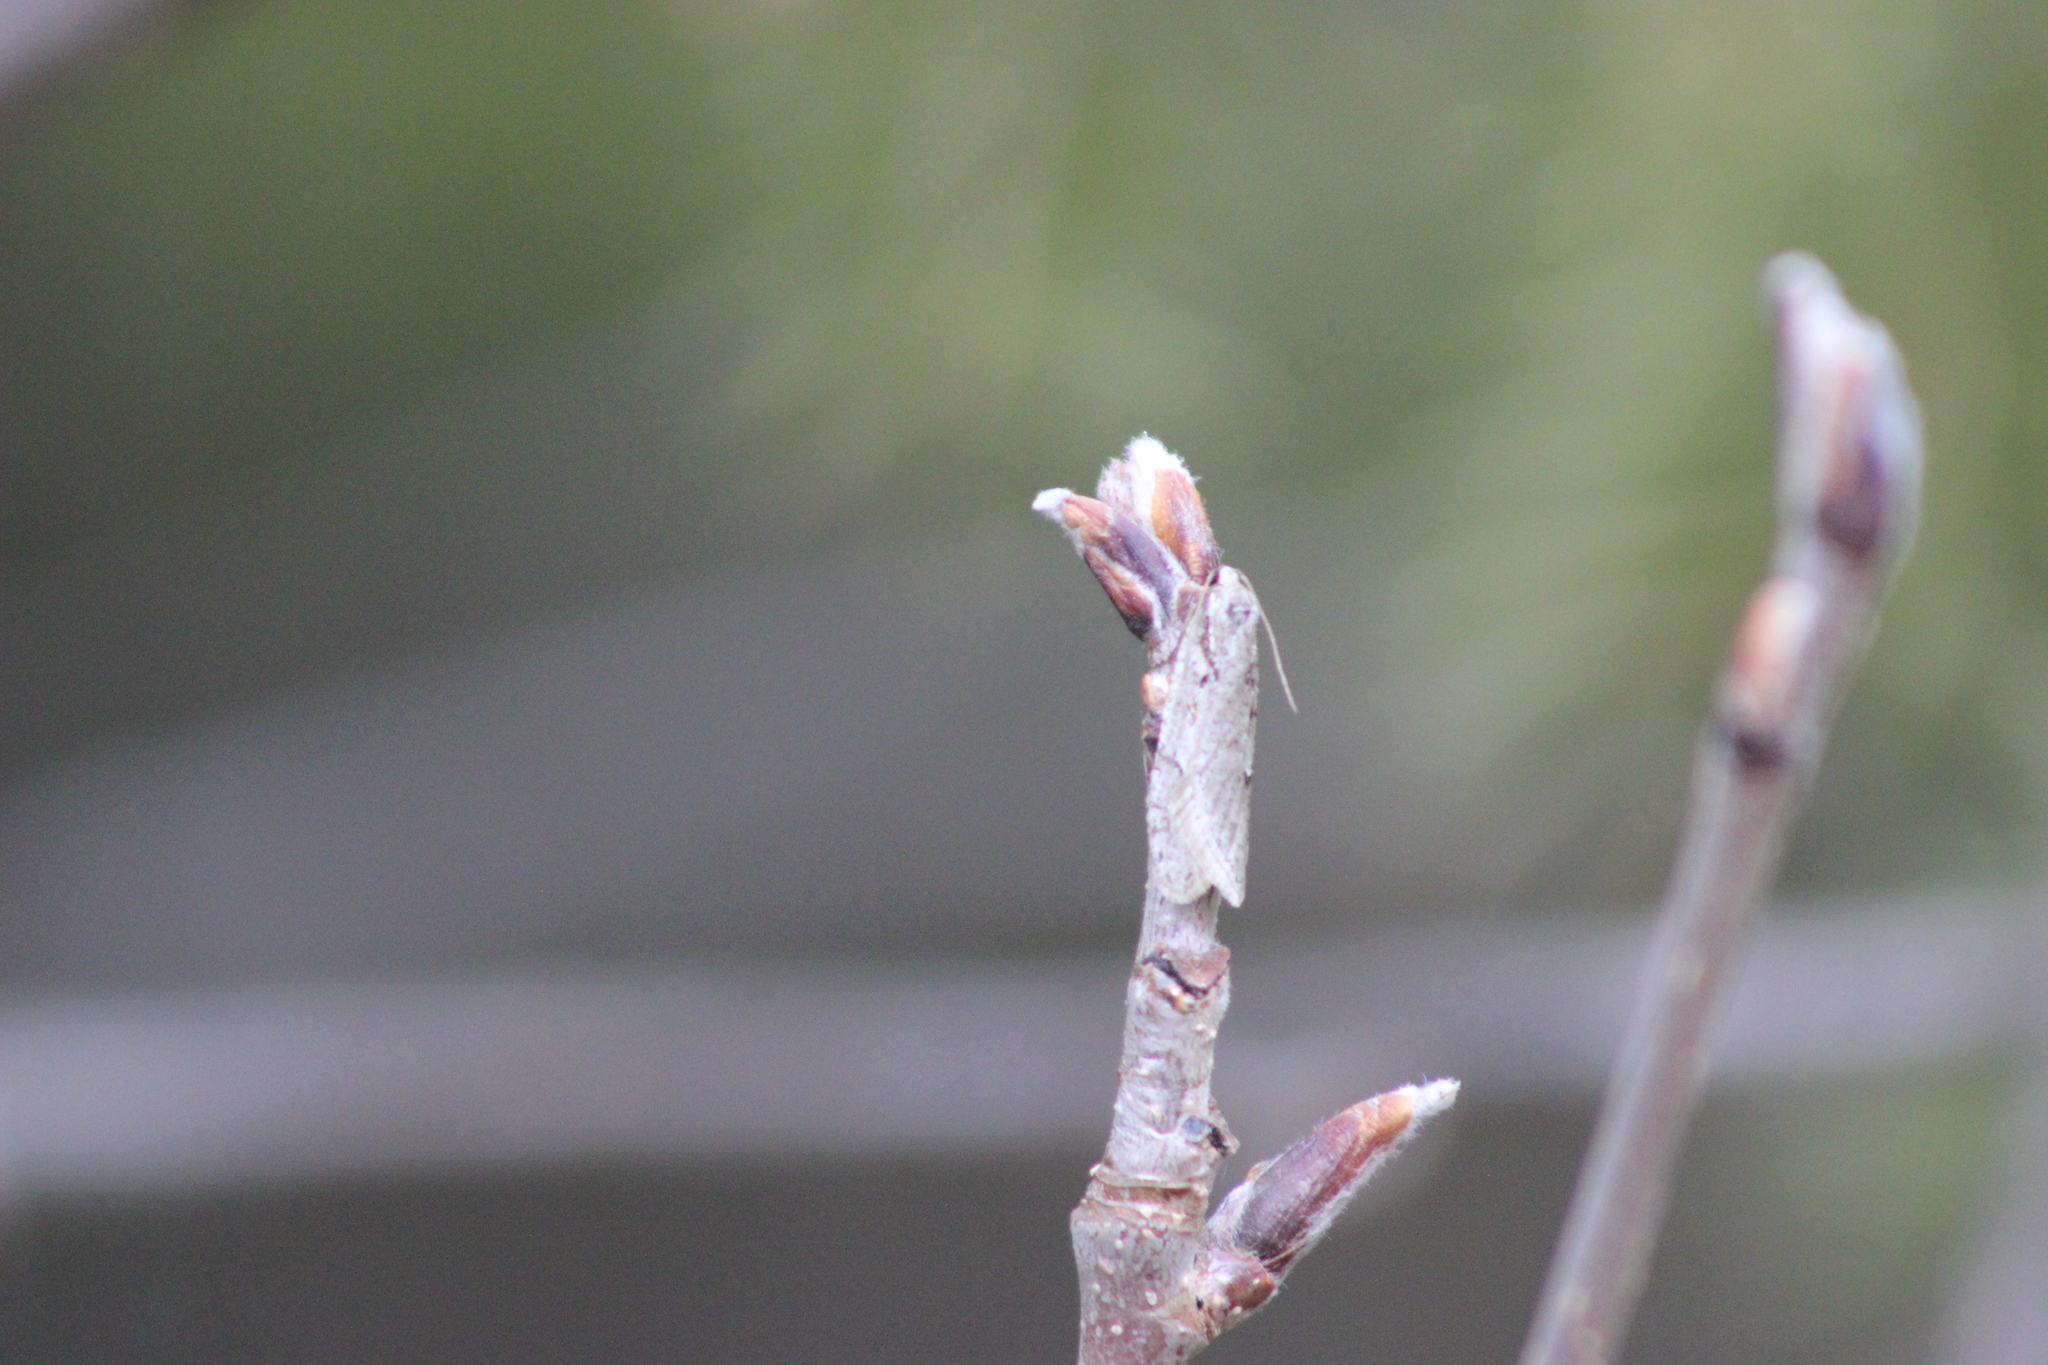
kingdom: Animalia
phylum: Arthropoda
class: Insecta
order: Lepidoptera
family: Depressariidae
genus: Semioscopis
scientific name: Semioscopis avellanella
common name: Early flat-body
